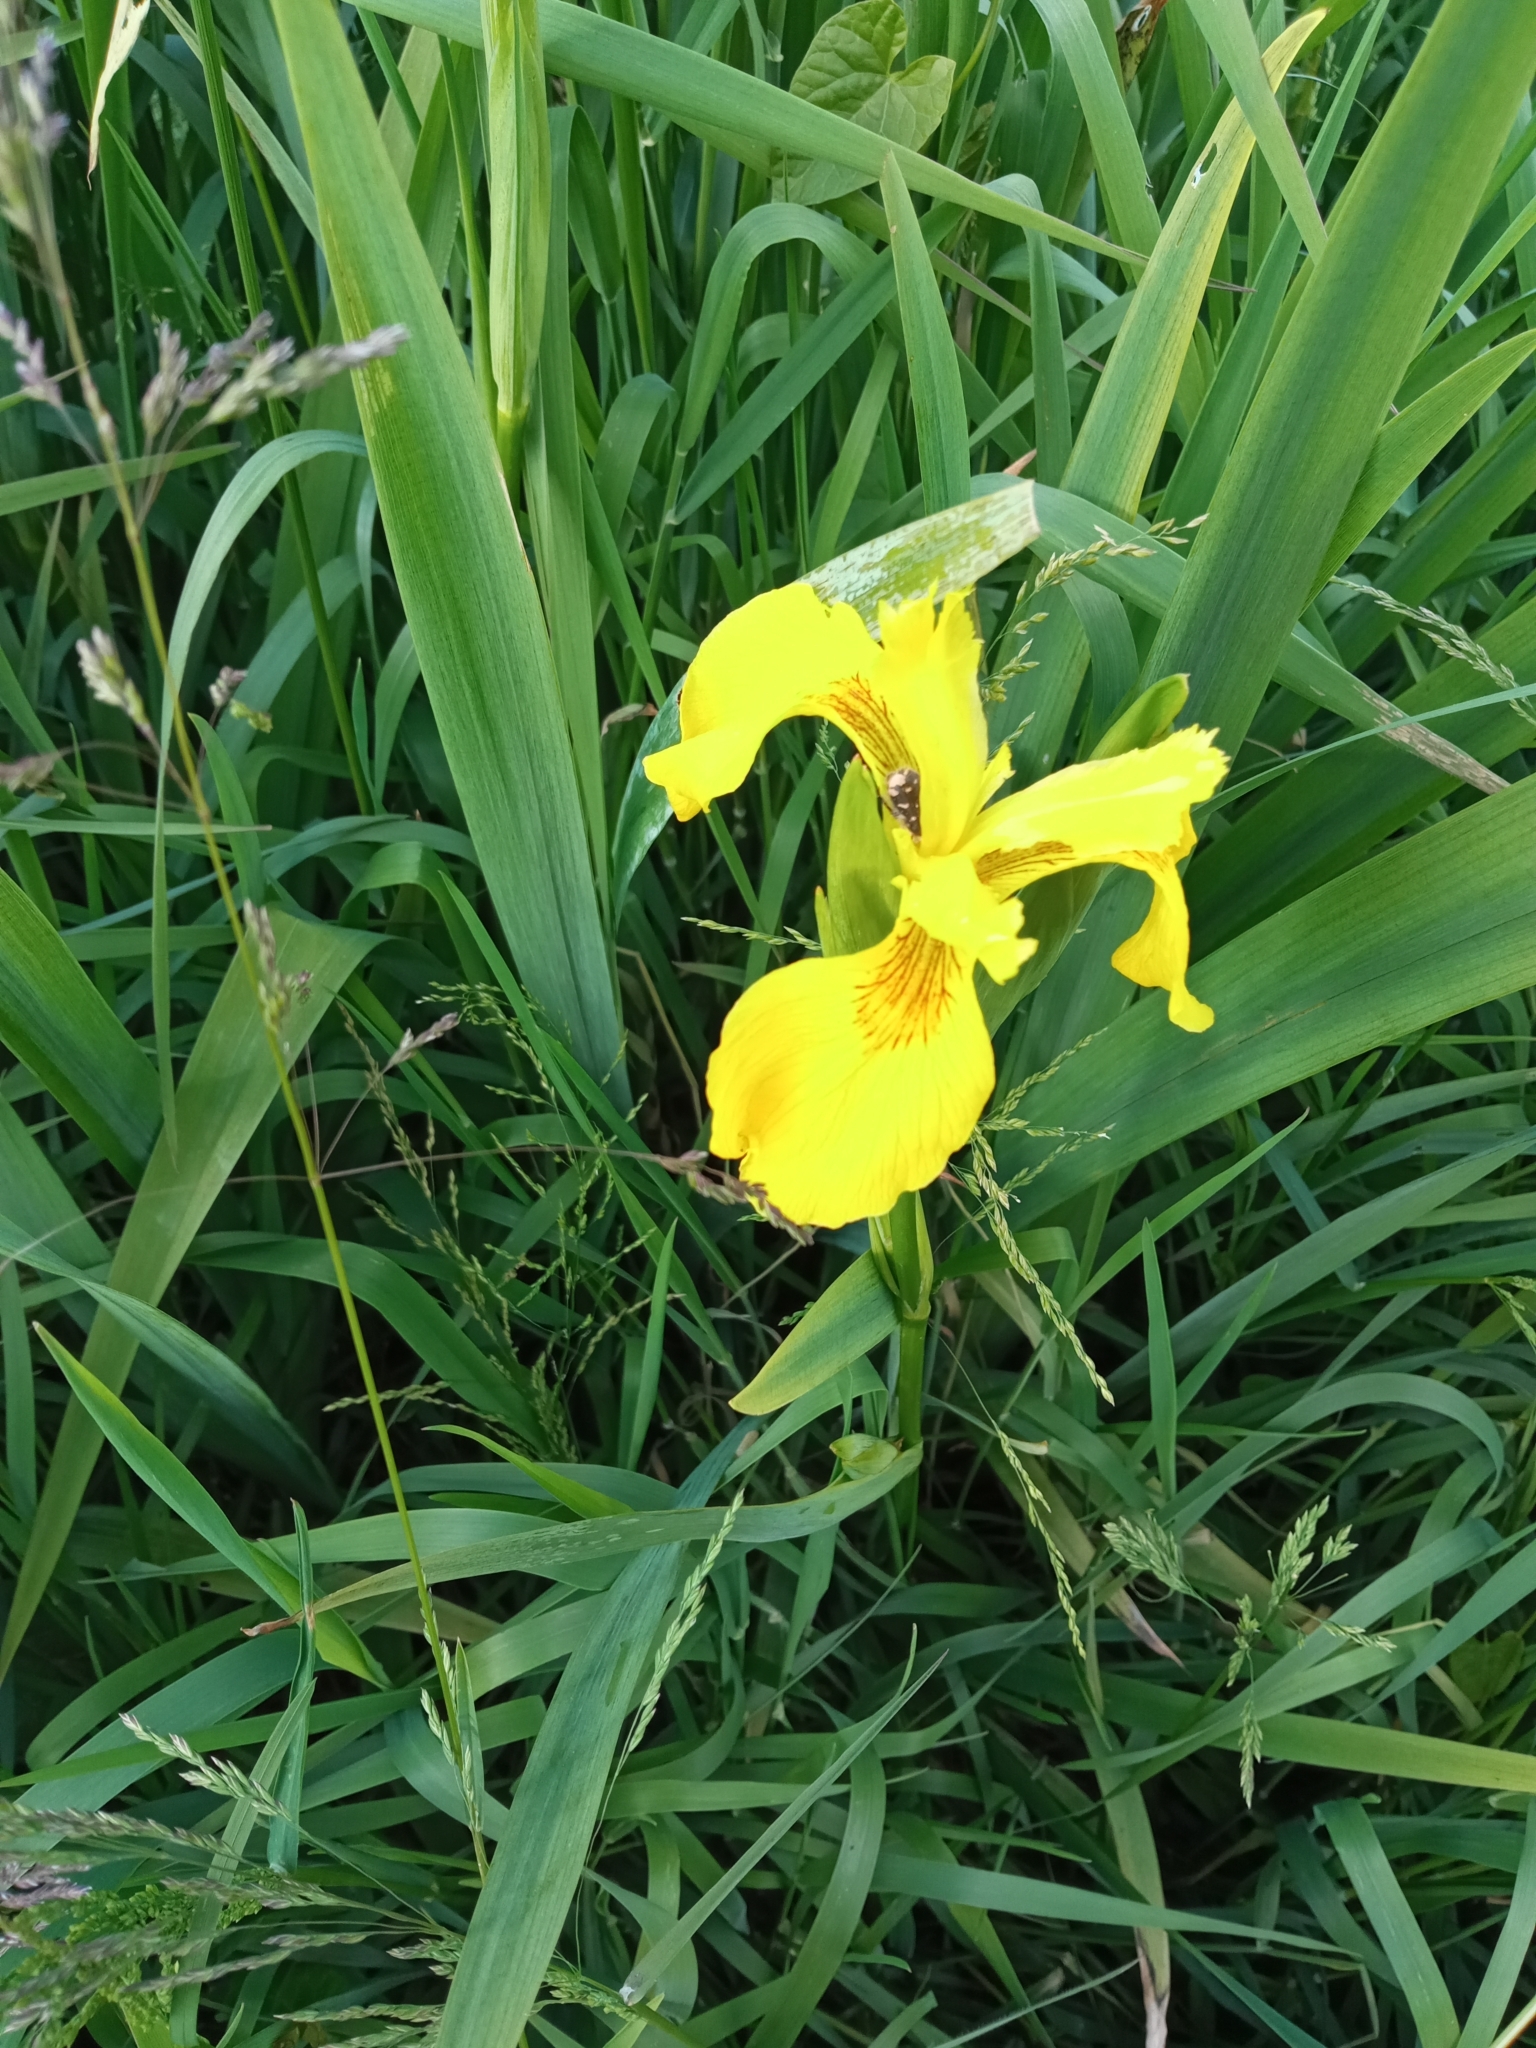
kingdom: Plantae
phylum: Tracheophyta
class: Liliopsida
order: Asparagales
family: Iridaceae
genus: Iris
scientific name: Iris pseudacorus
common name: Yellow flag
